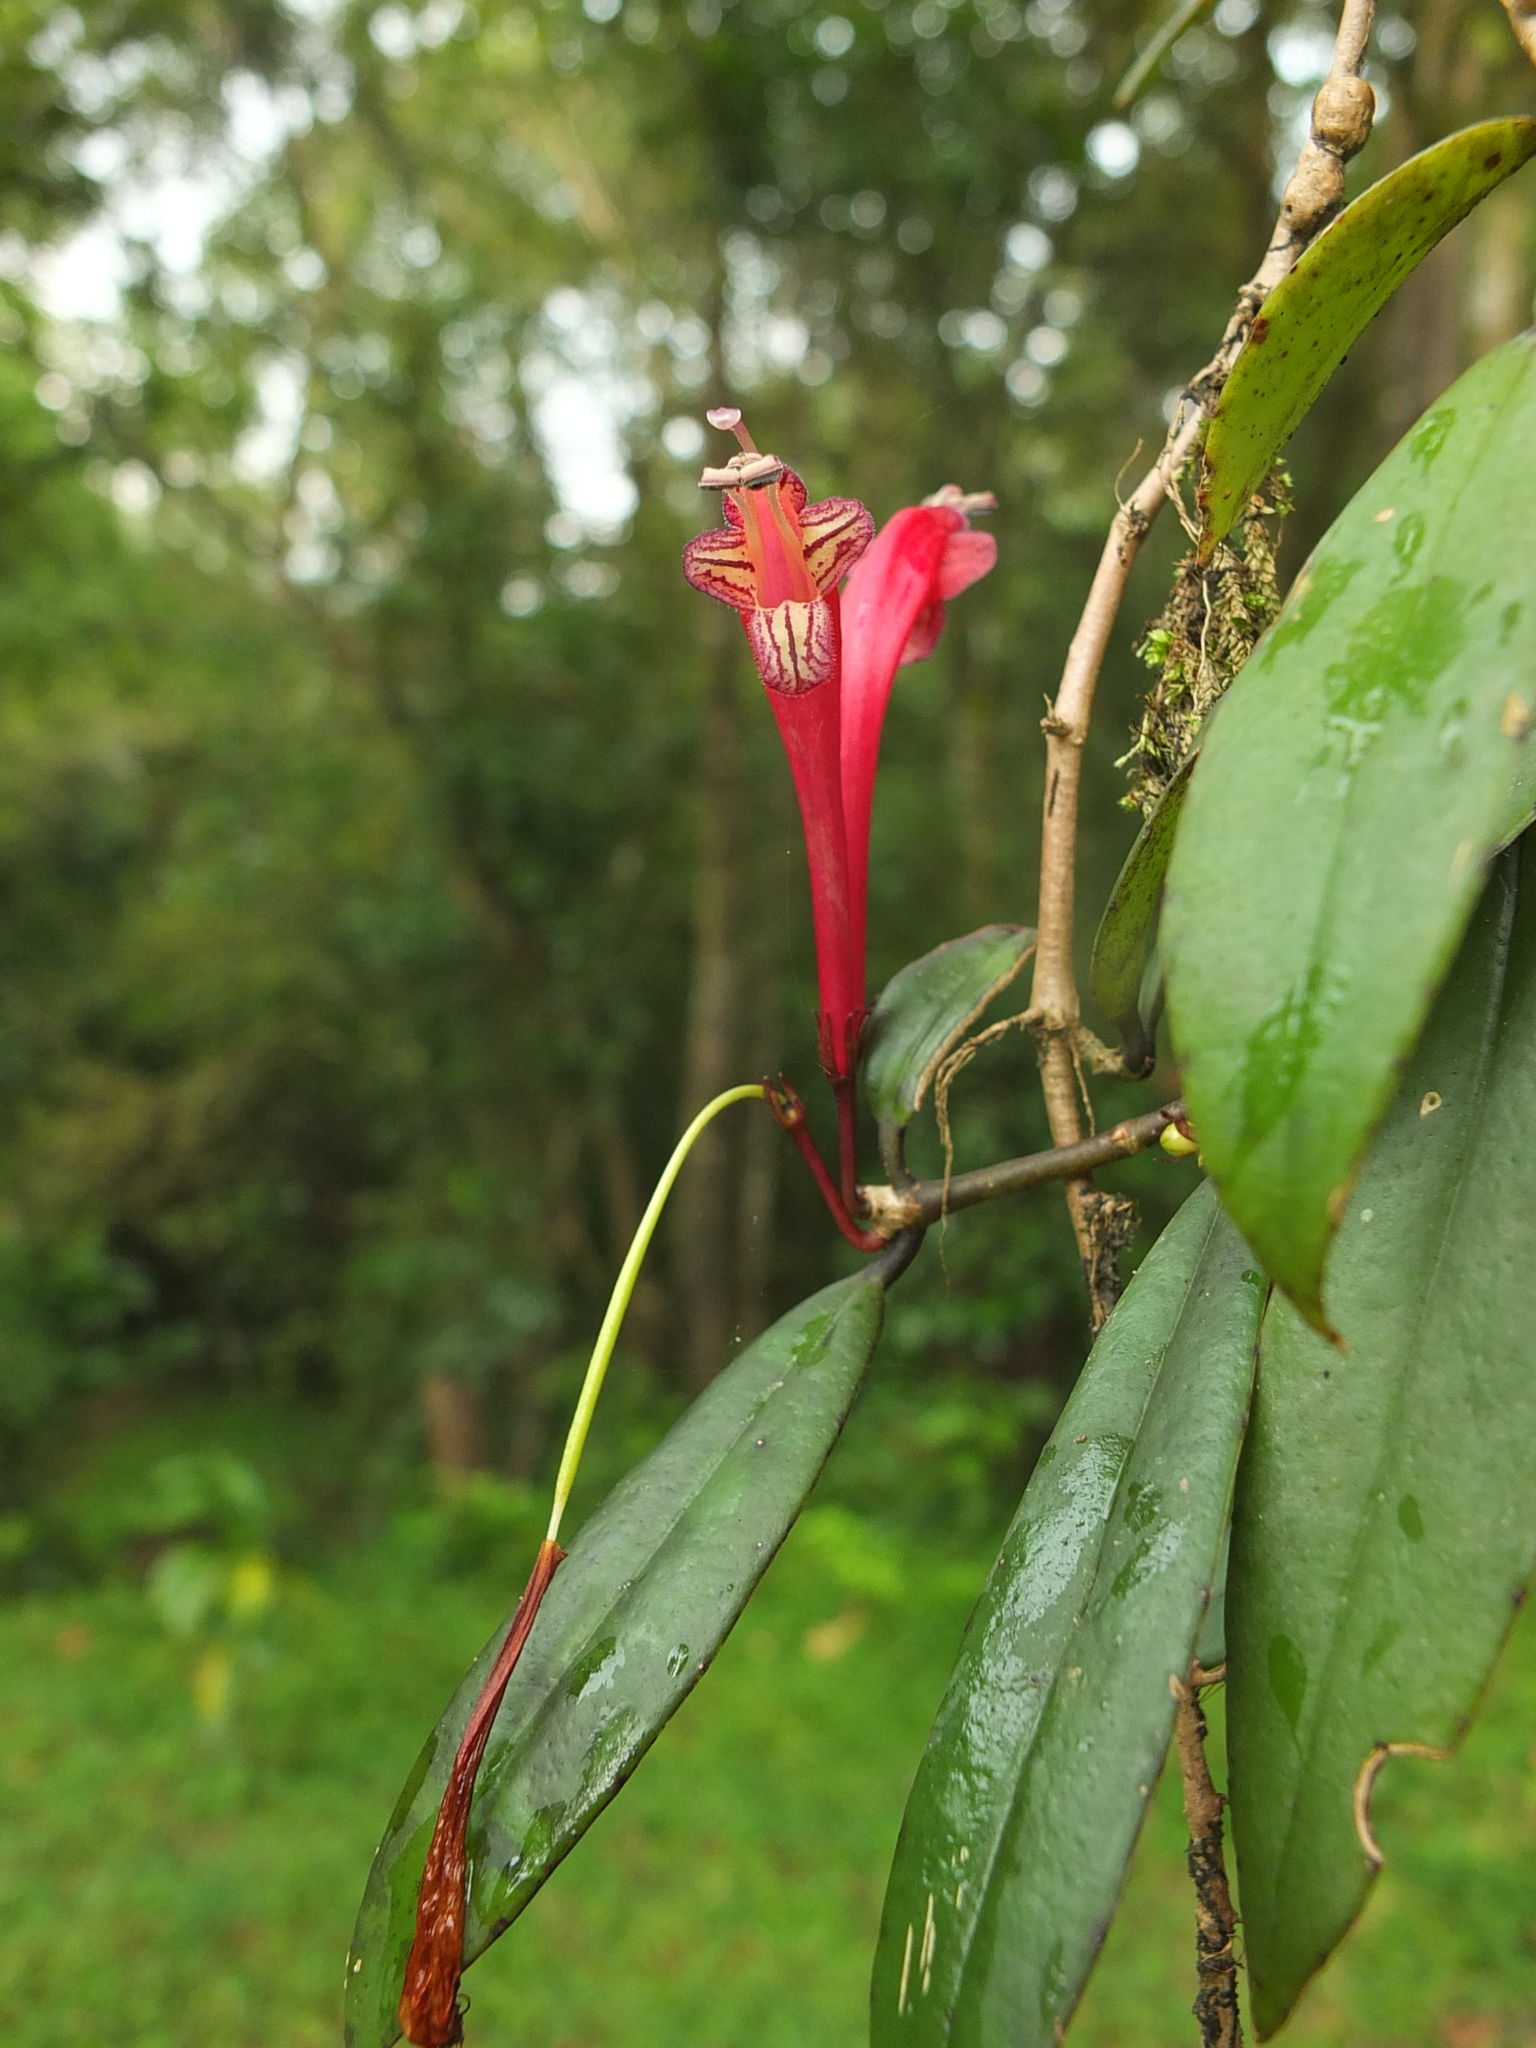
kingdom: Plantae
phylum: Tracheophyta
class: Magnoliopsida
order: Lamiales
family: Gesneriaceae
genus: Aeschynanthus
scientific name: Aeschynanthus perrottetii
